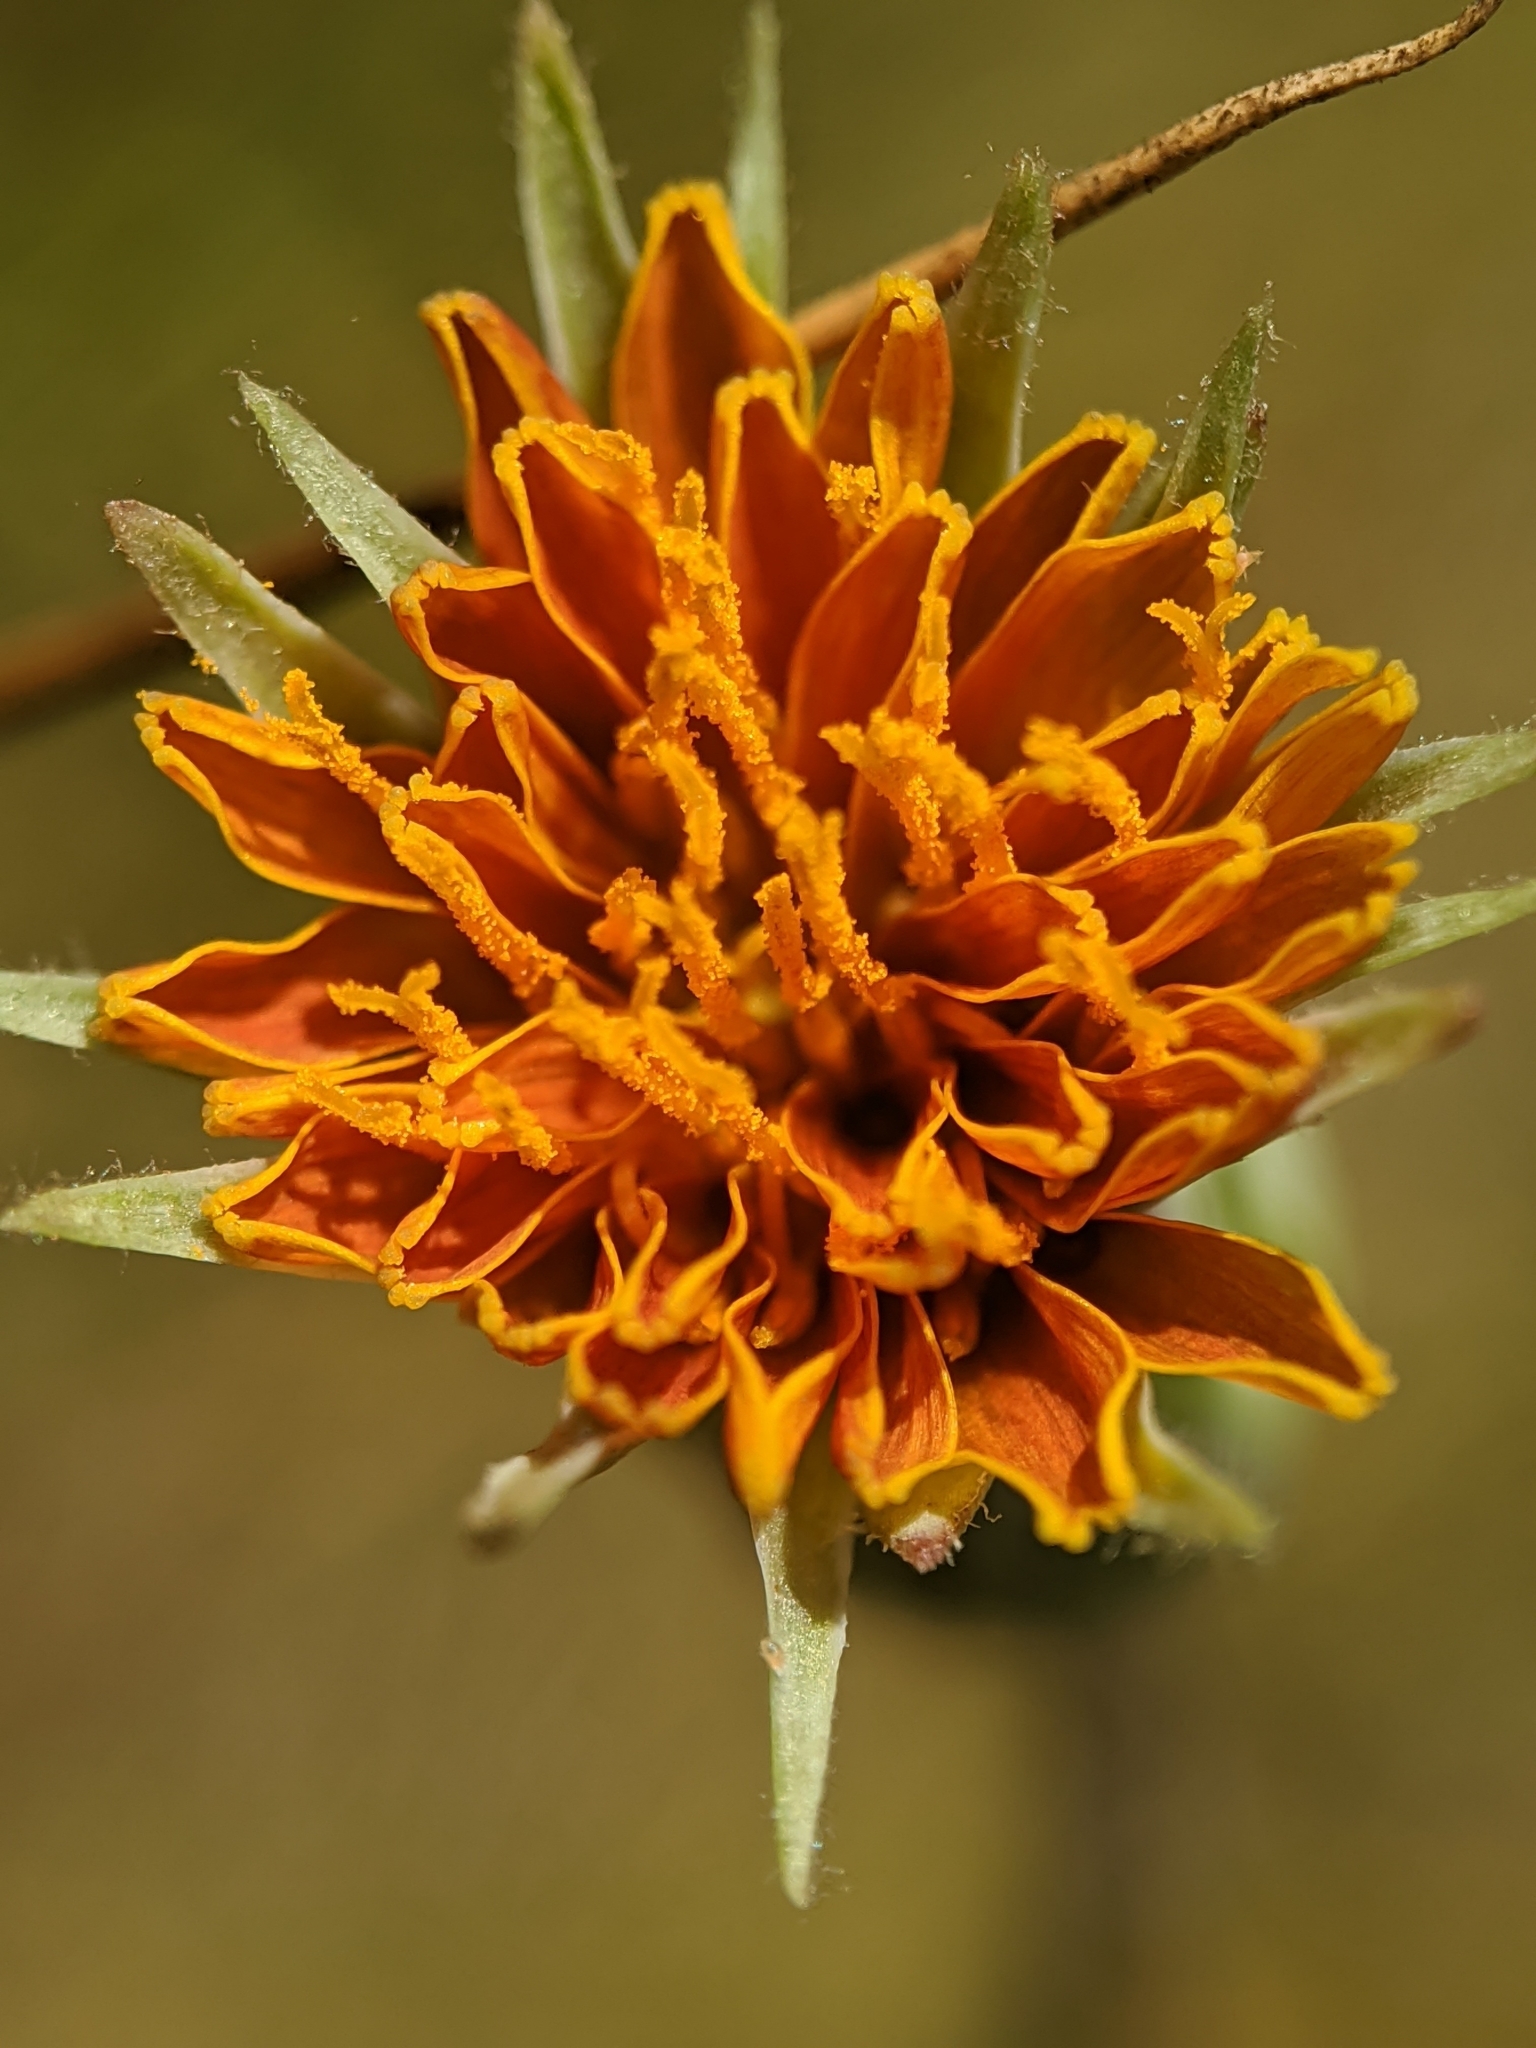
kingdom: Plantae
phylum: Tracheophyta
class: Magnoliopsida
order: Asterales
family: Asteraceae
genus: Agoseris
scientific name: Agoseris aurantiaca
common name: Mountain agoseris
